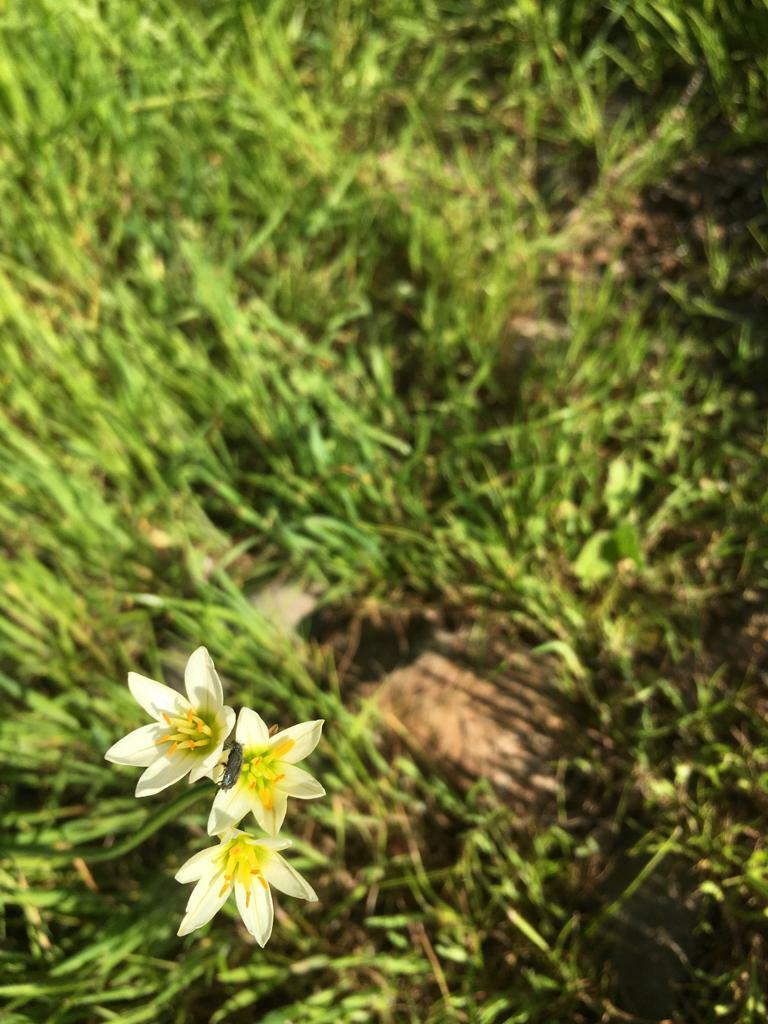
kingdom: Plantae
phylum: Tracheophyta
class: Liliopsida
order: Asparagales
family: Amaryllidaceae
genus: Nothoscordum
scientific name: Nothoscordum bivalve
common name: Crow-poison
